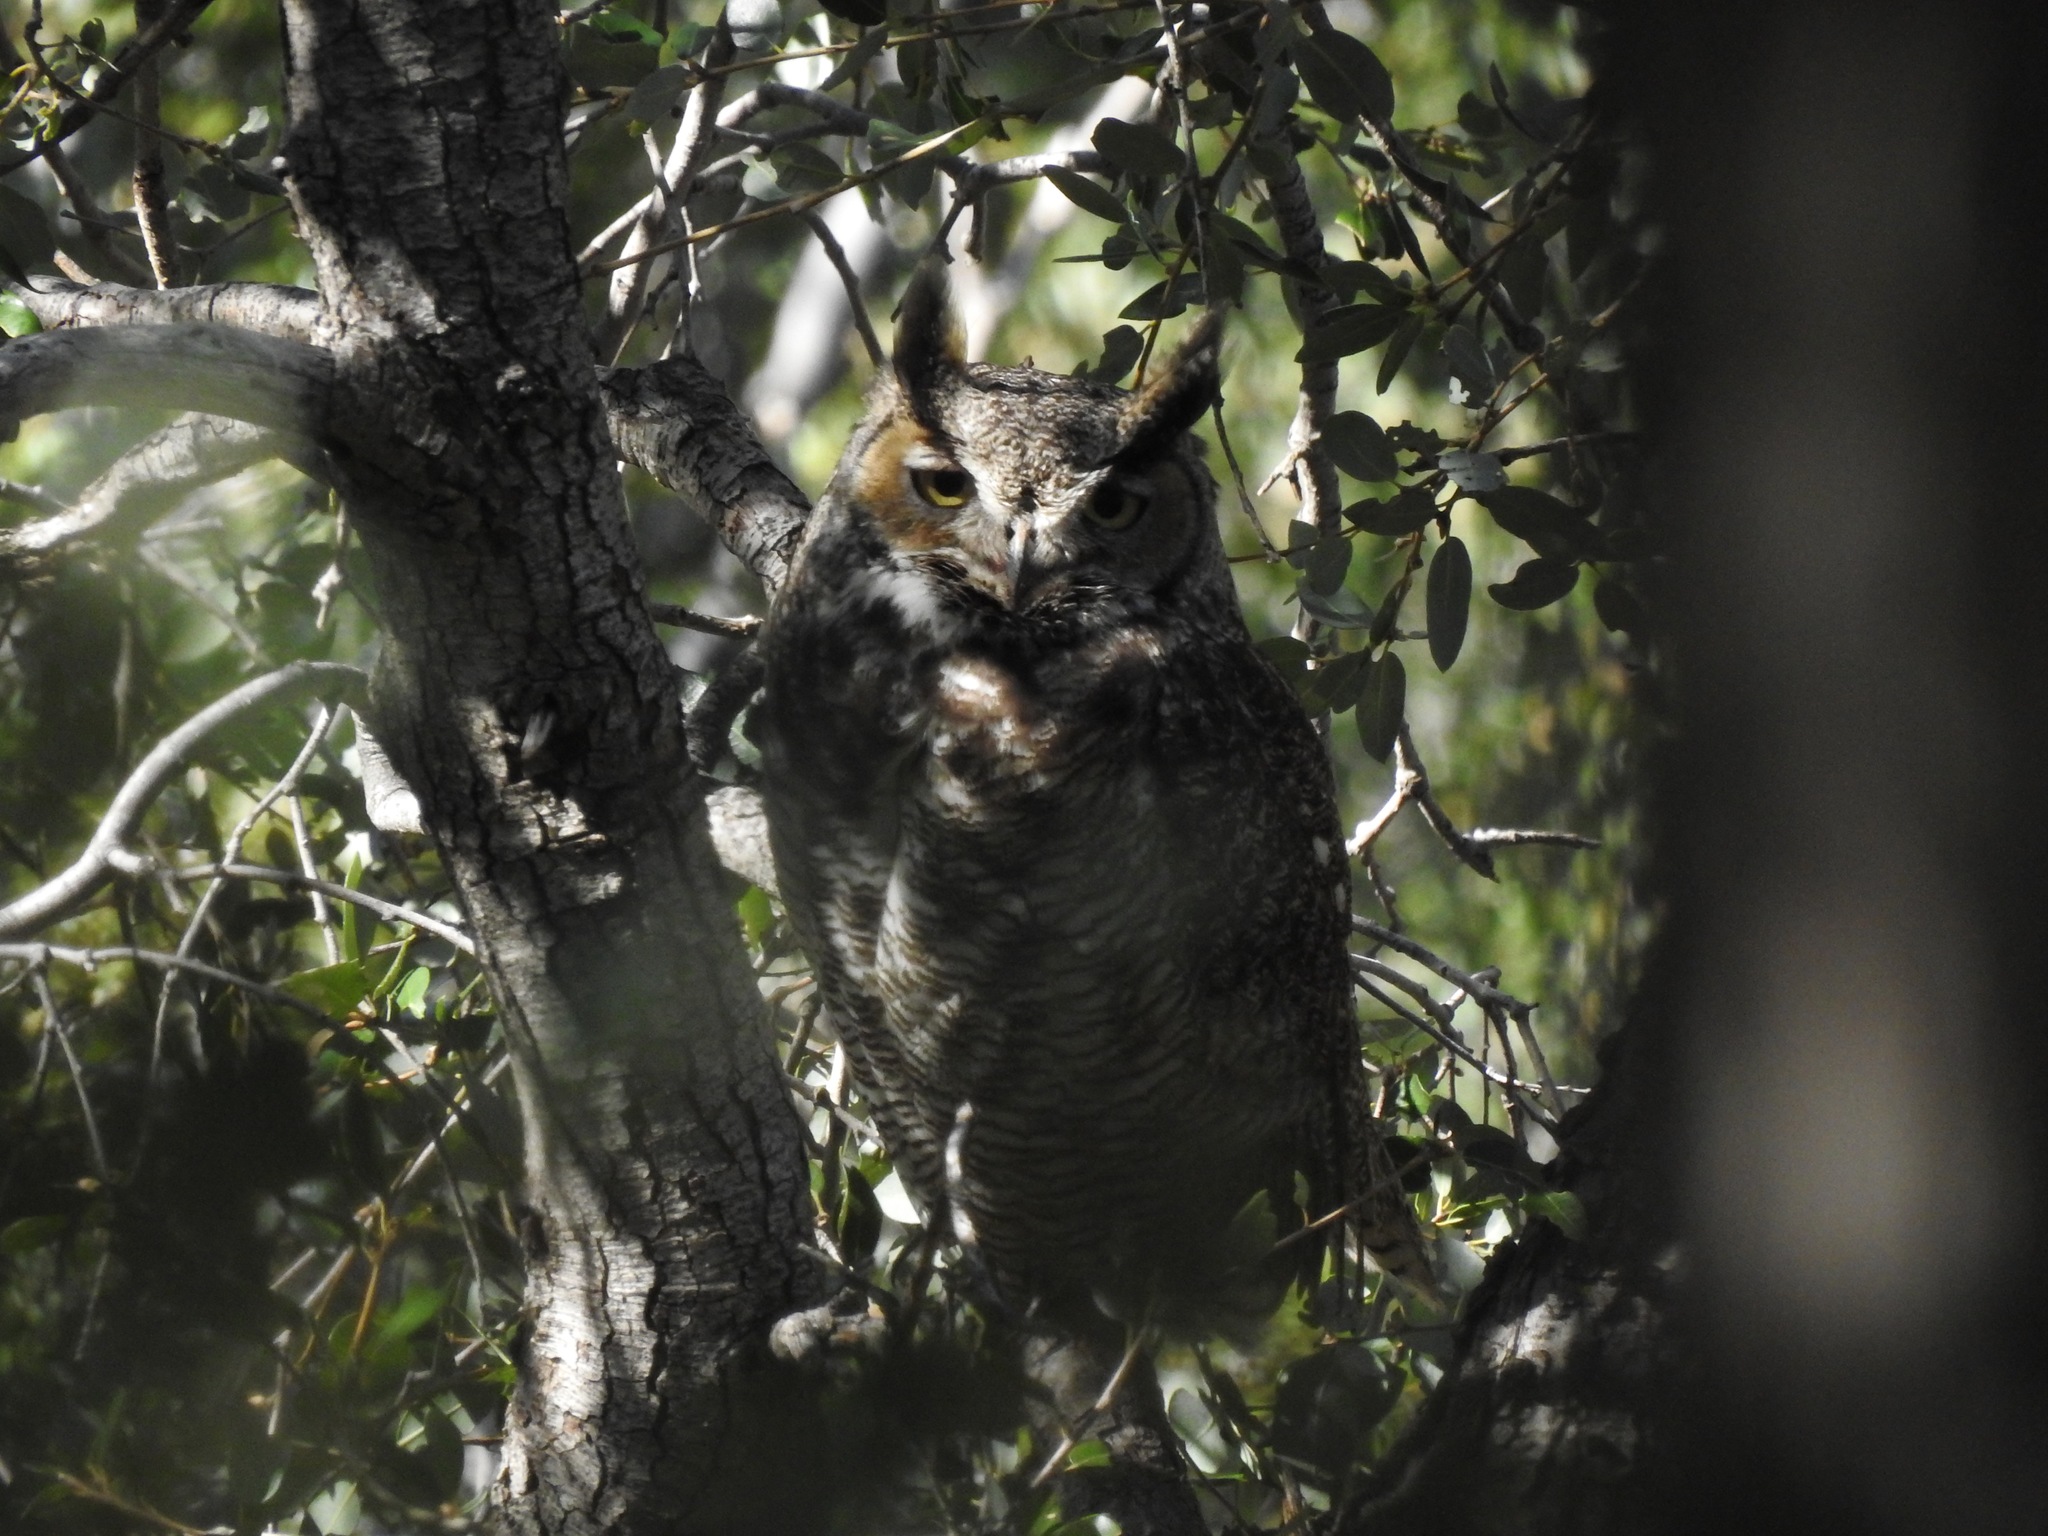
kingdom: Animalia
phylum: Chordata
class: Aves
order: Strigiformes
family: Strigidae
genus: Bubo
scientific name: Bubo virginianus
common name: Great horned owl
